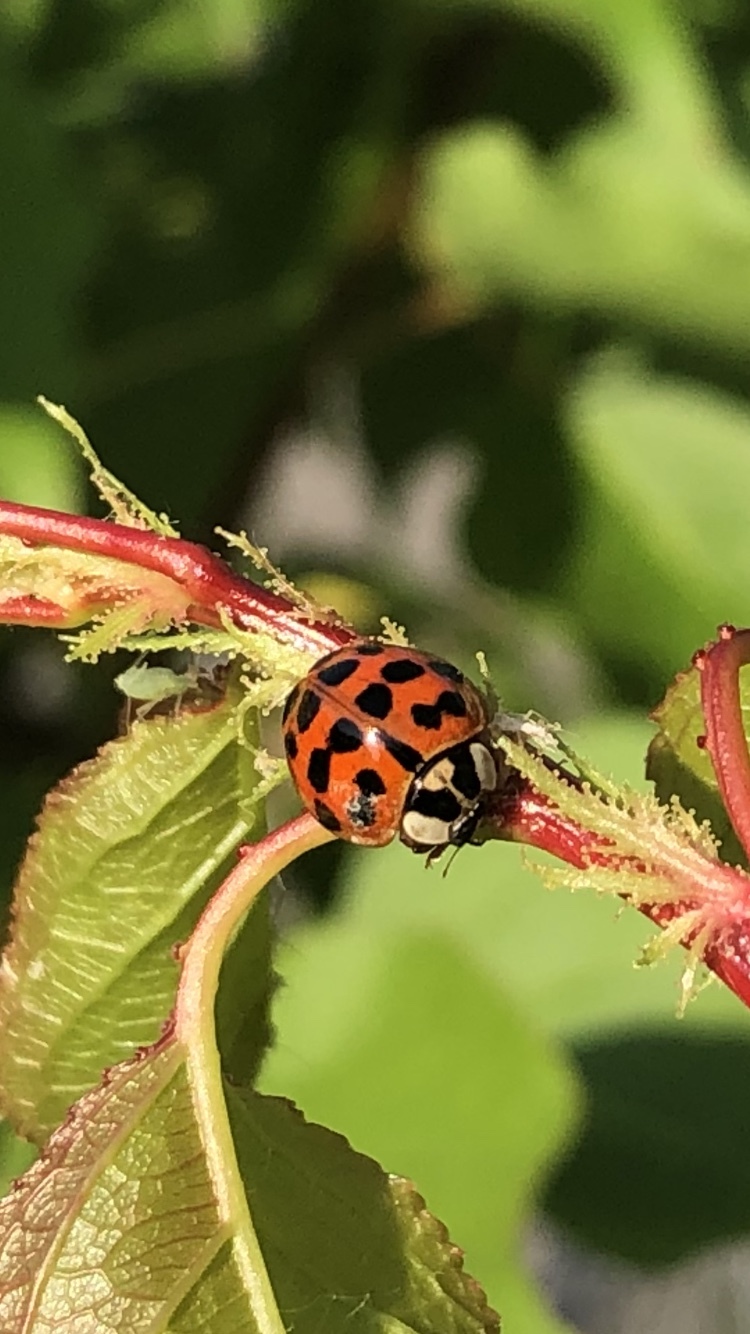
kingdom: Animalia
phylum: Arthropoda
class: Insecta
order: Coleoptera
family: Coccinellidae
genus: Harmonia
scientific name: Harmonia axyridis
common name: Harlequin ladybird
